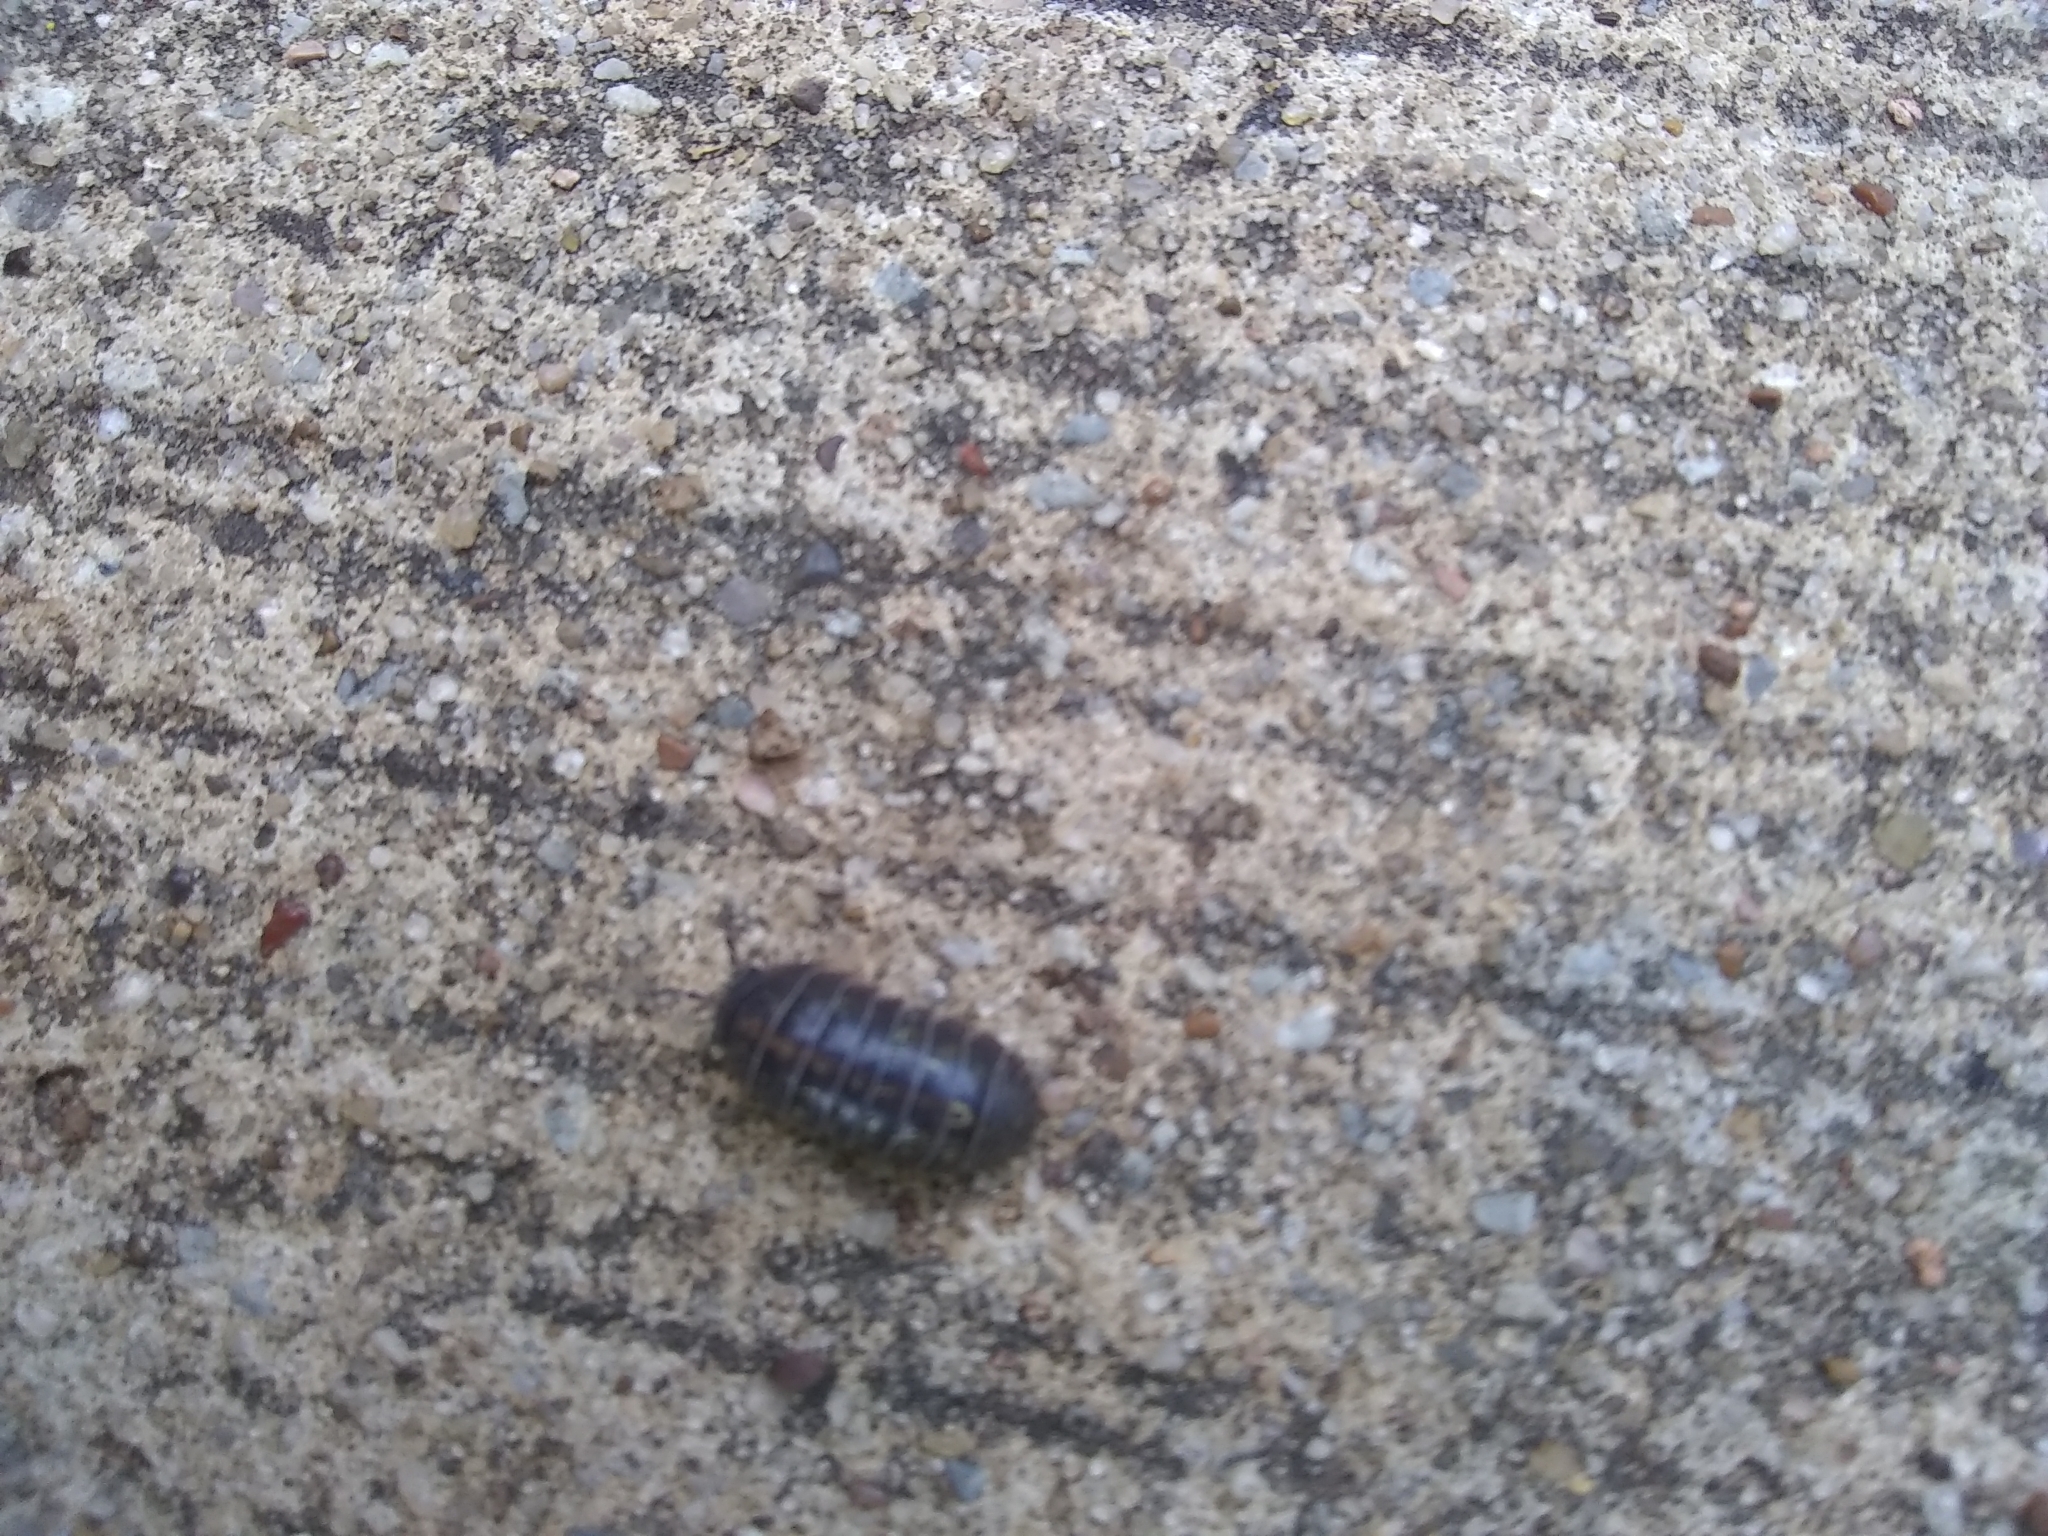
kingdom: Animalia
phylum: Arthropoda
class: Malacostraca
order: Isopoda
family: Armadillidiidae
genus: Armadillidium
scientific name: Armadillidium vulgare
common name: Common pill woodlouse
